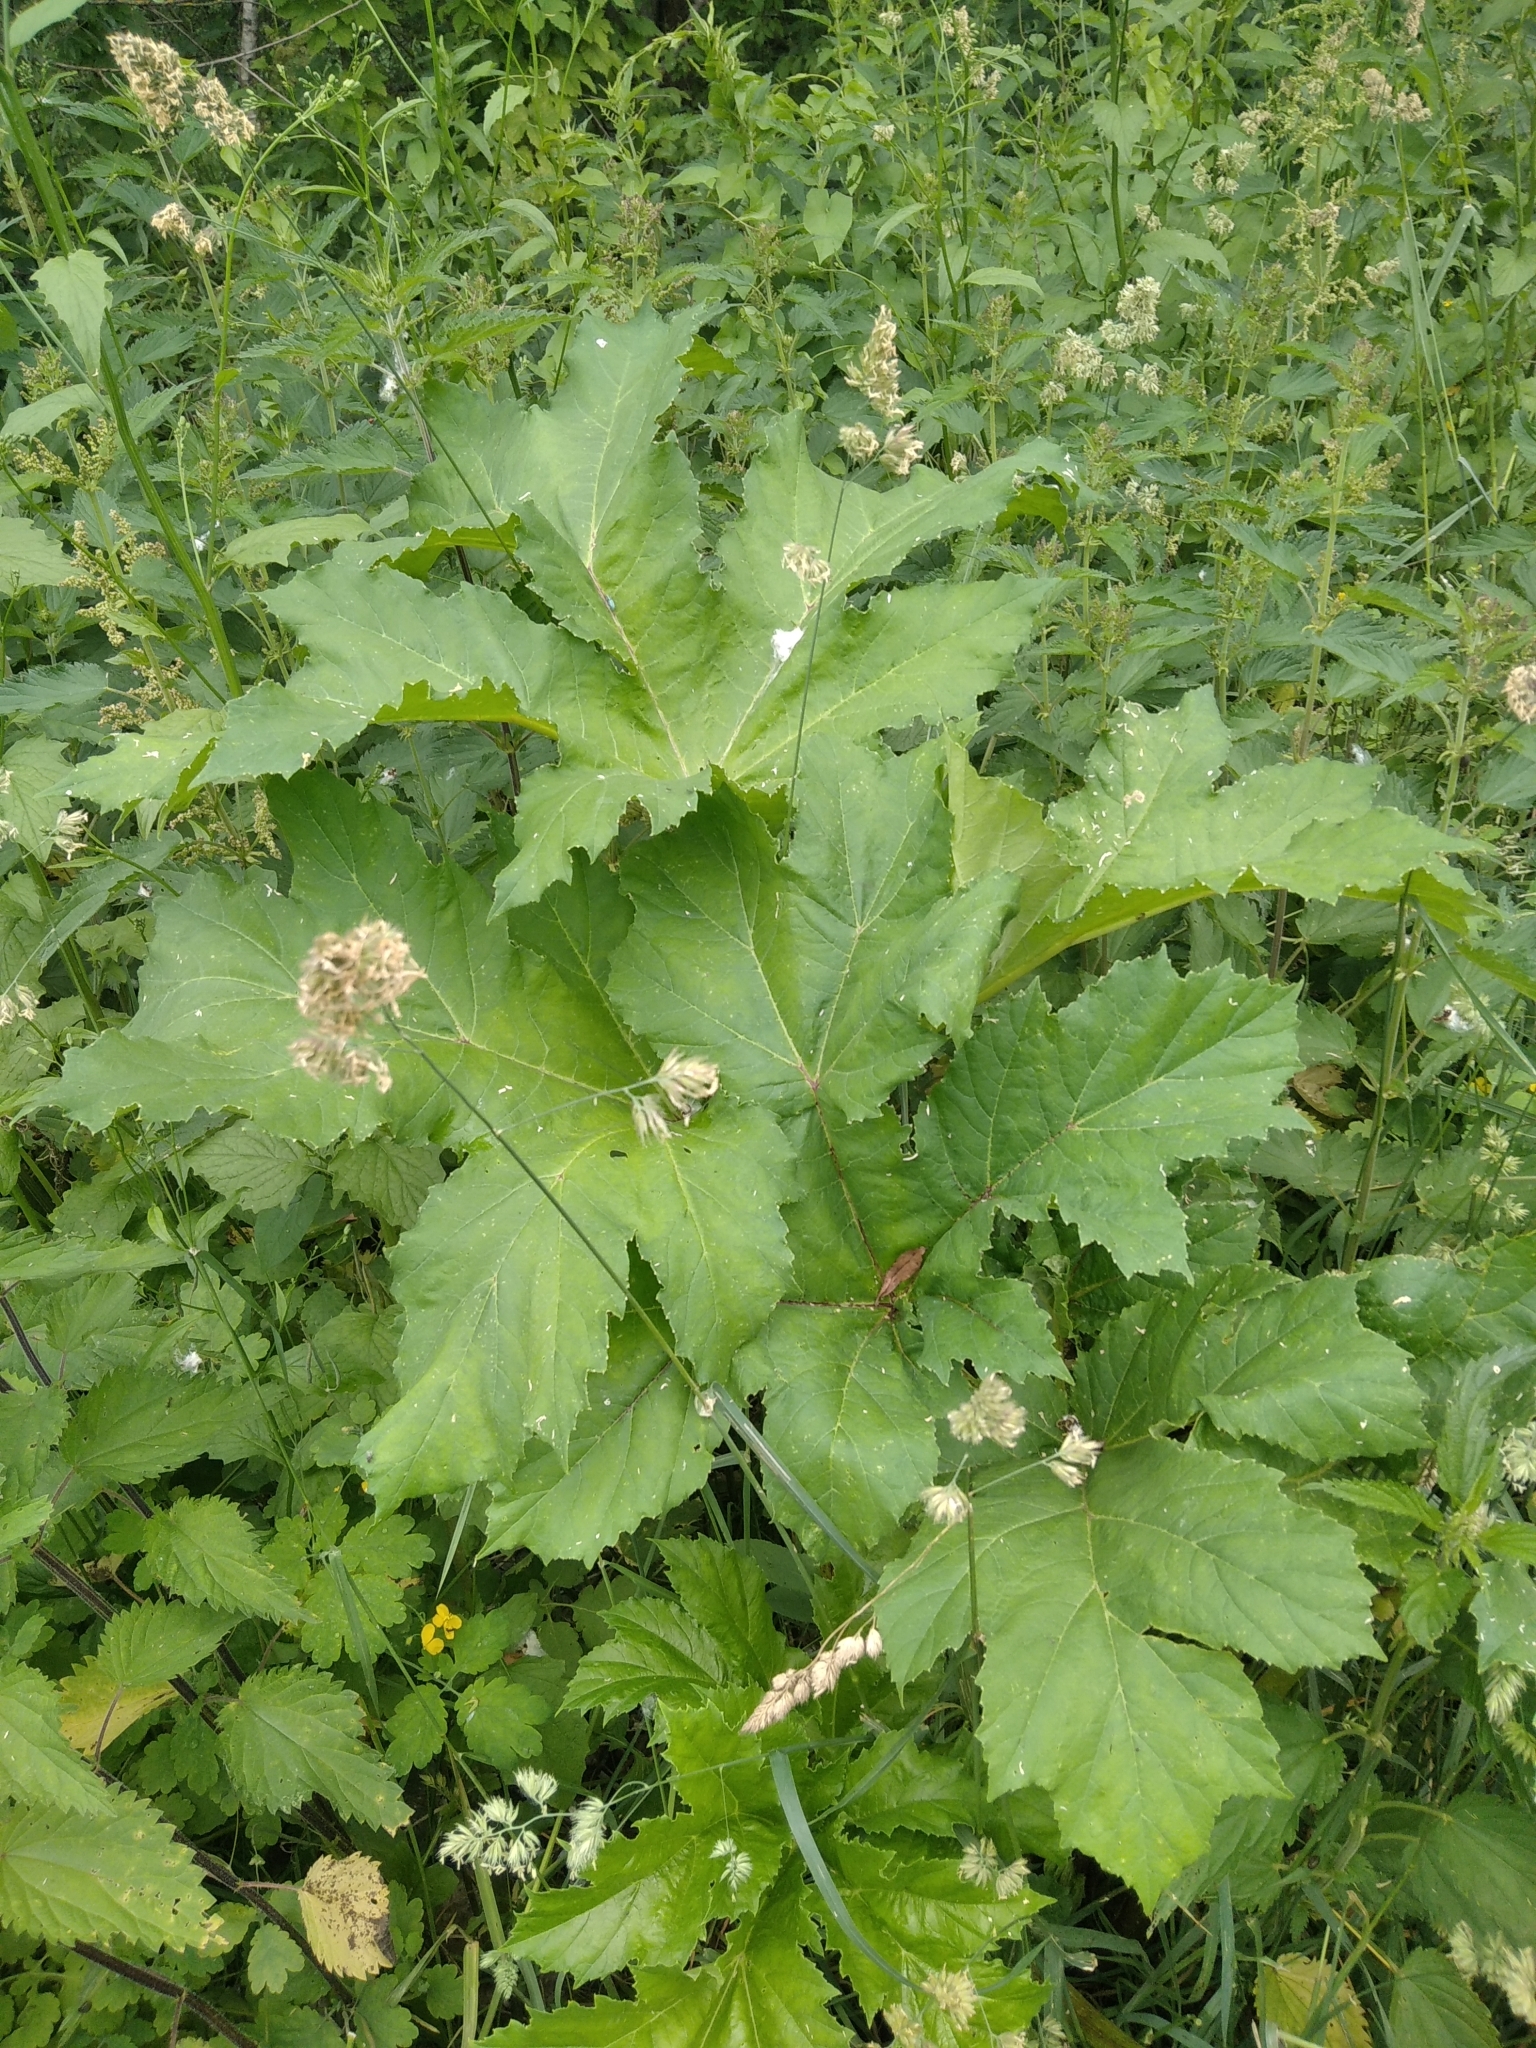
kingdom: Plantae
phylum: Tracheophyta
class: Magnoliopsida
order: Apiales
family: Apiaceae
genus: Heracleum
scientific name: Heracleum sosnowskyi
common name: Sosnowsky's hogweed
